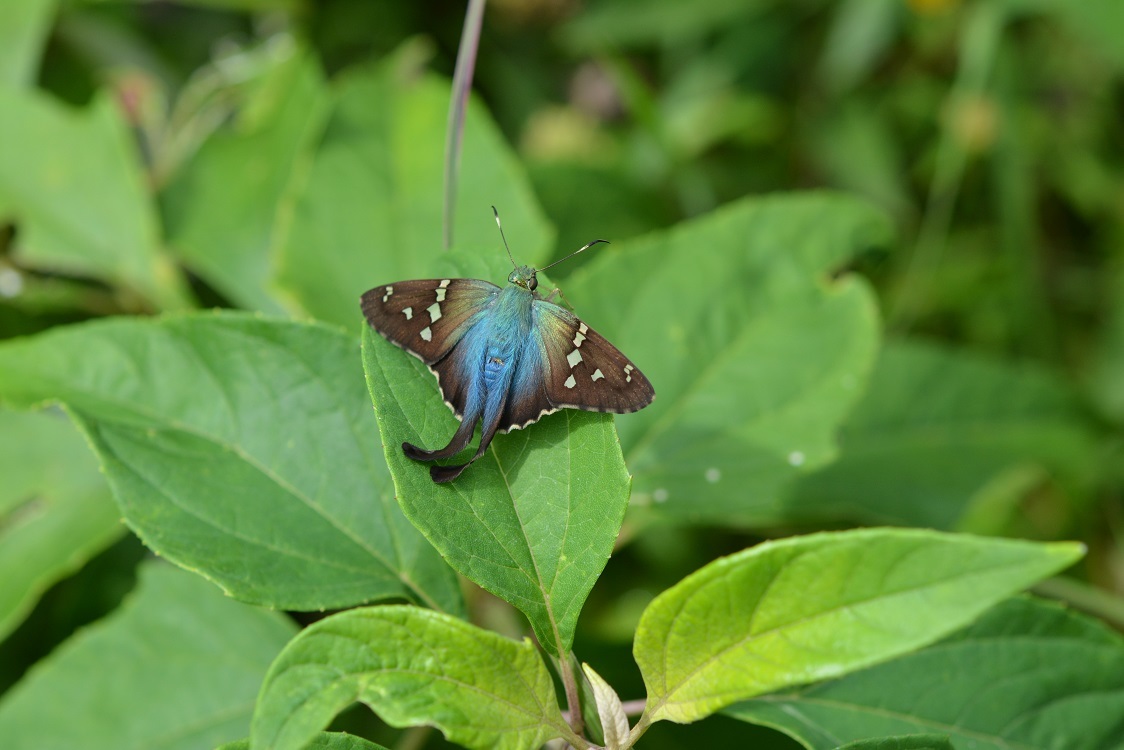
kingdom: Animalia
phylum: Arthropoda
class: Insecta
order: Lepidoptera
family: Hesperiidae
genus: Urbanus
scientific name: Urbanus viterboana
